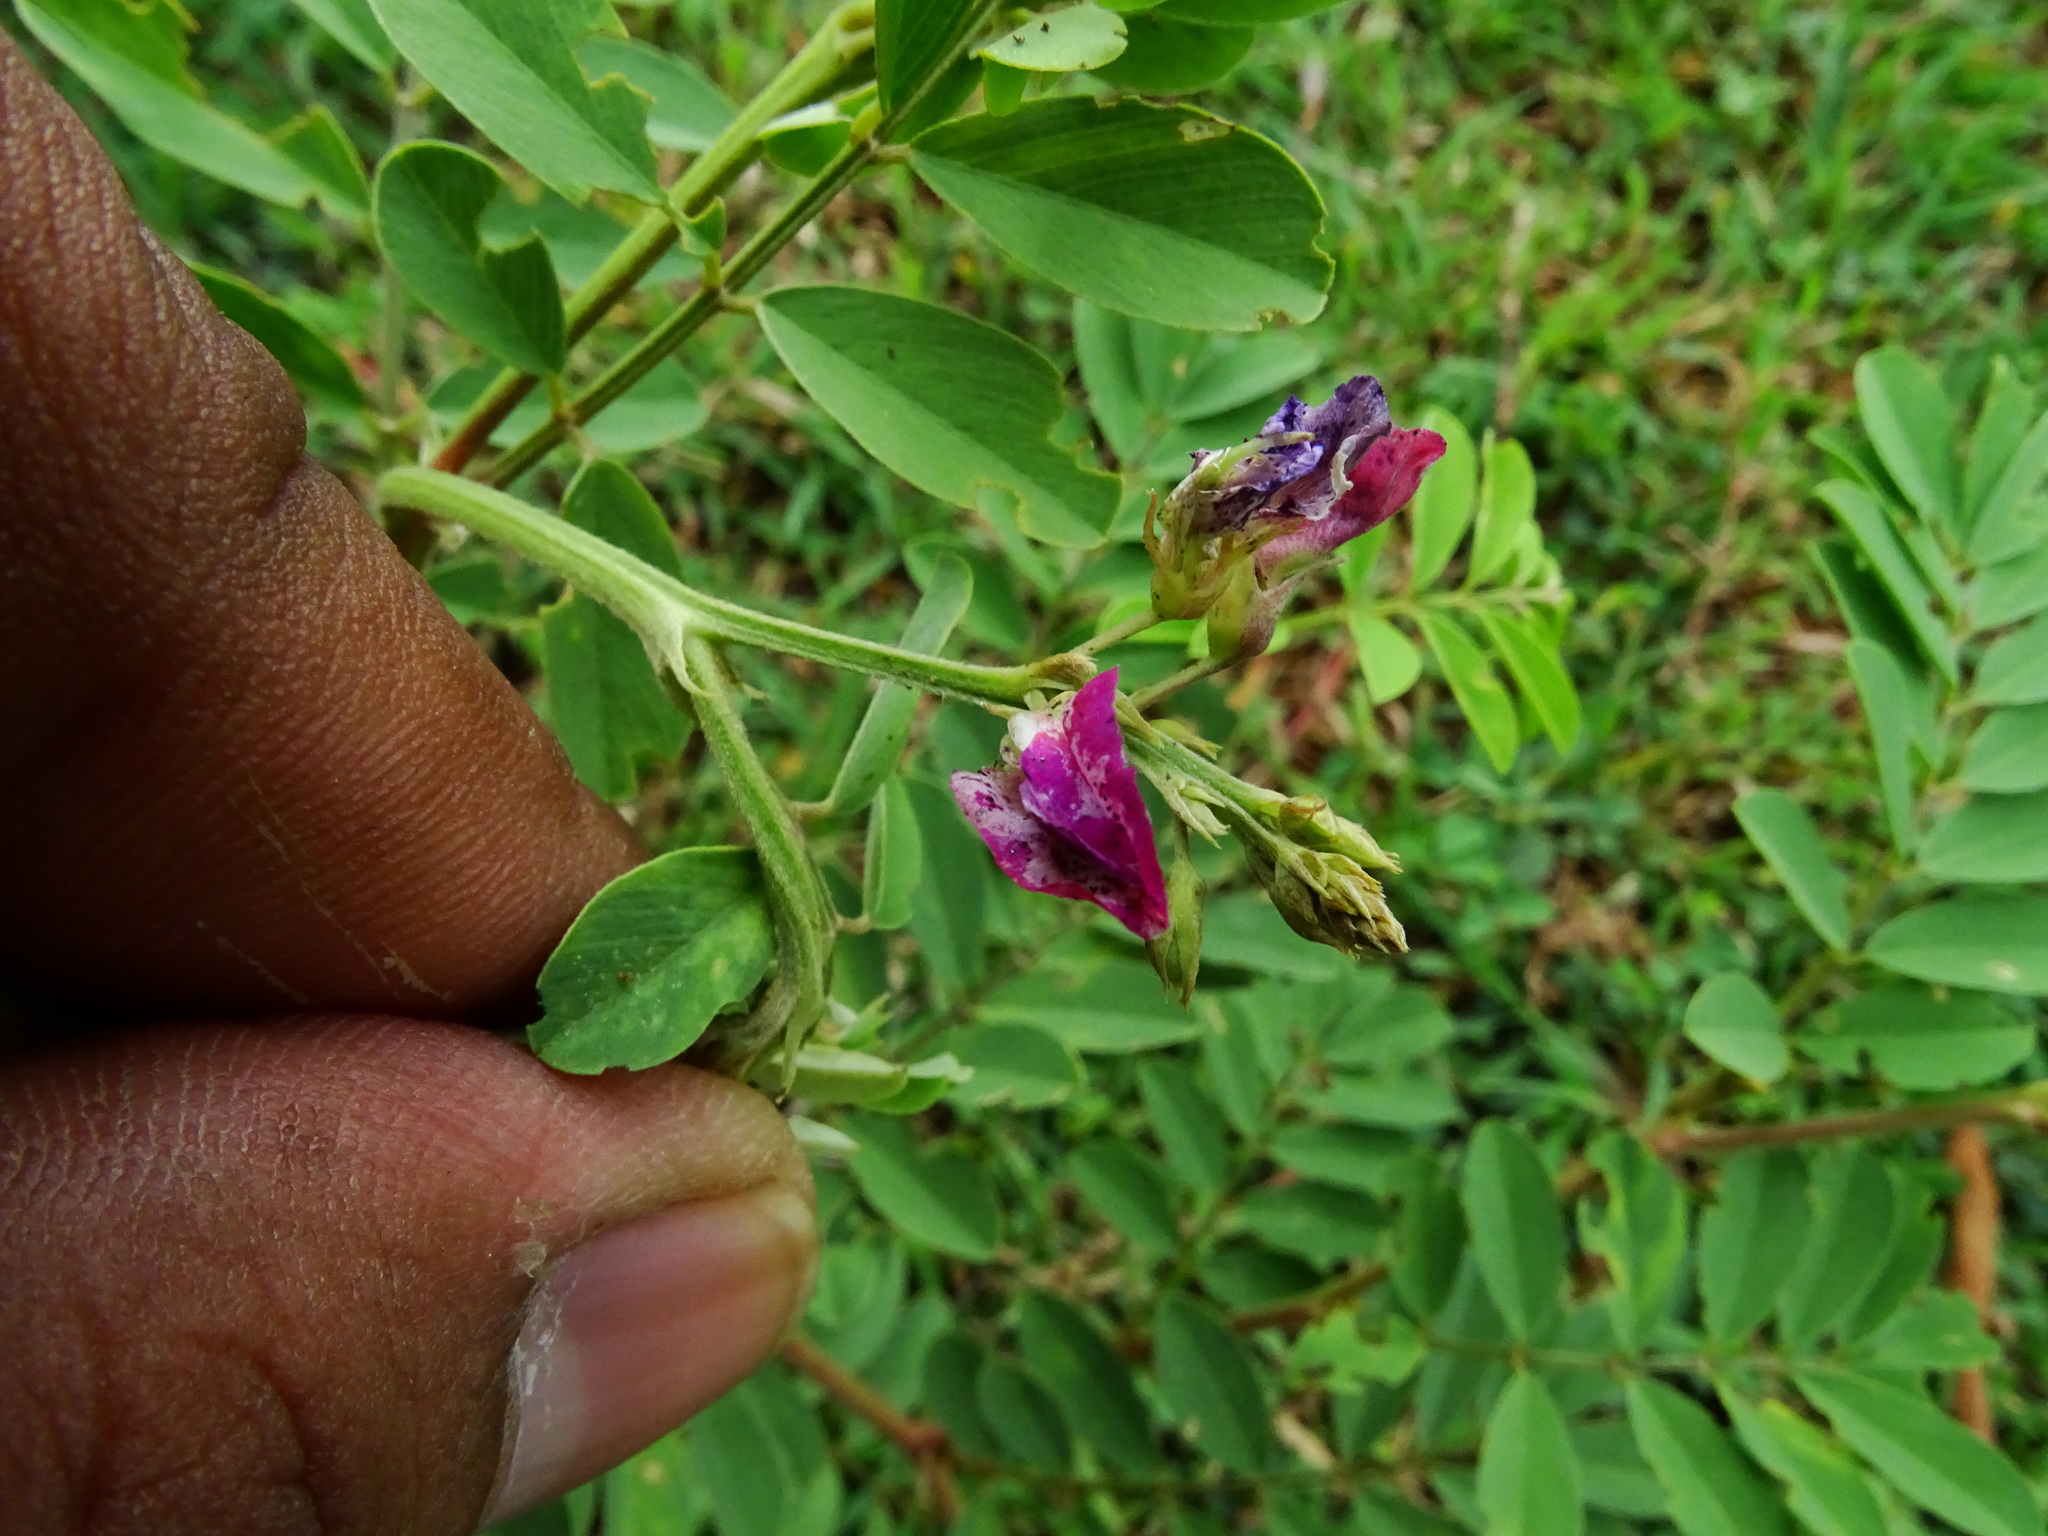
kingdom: Plantae
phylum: Tracheophyta
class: Magnoliopsida
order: Fabales
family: Fabaceae
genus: Tephrosia
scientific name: Tephrosia purpurea
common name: Fishpoison
